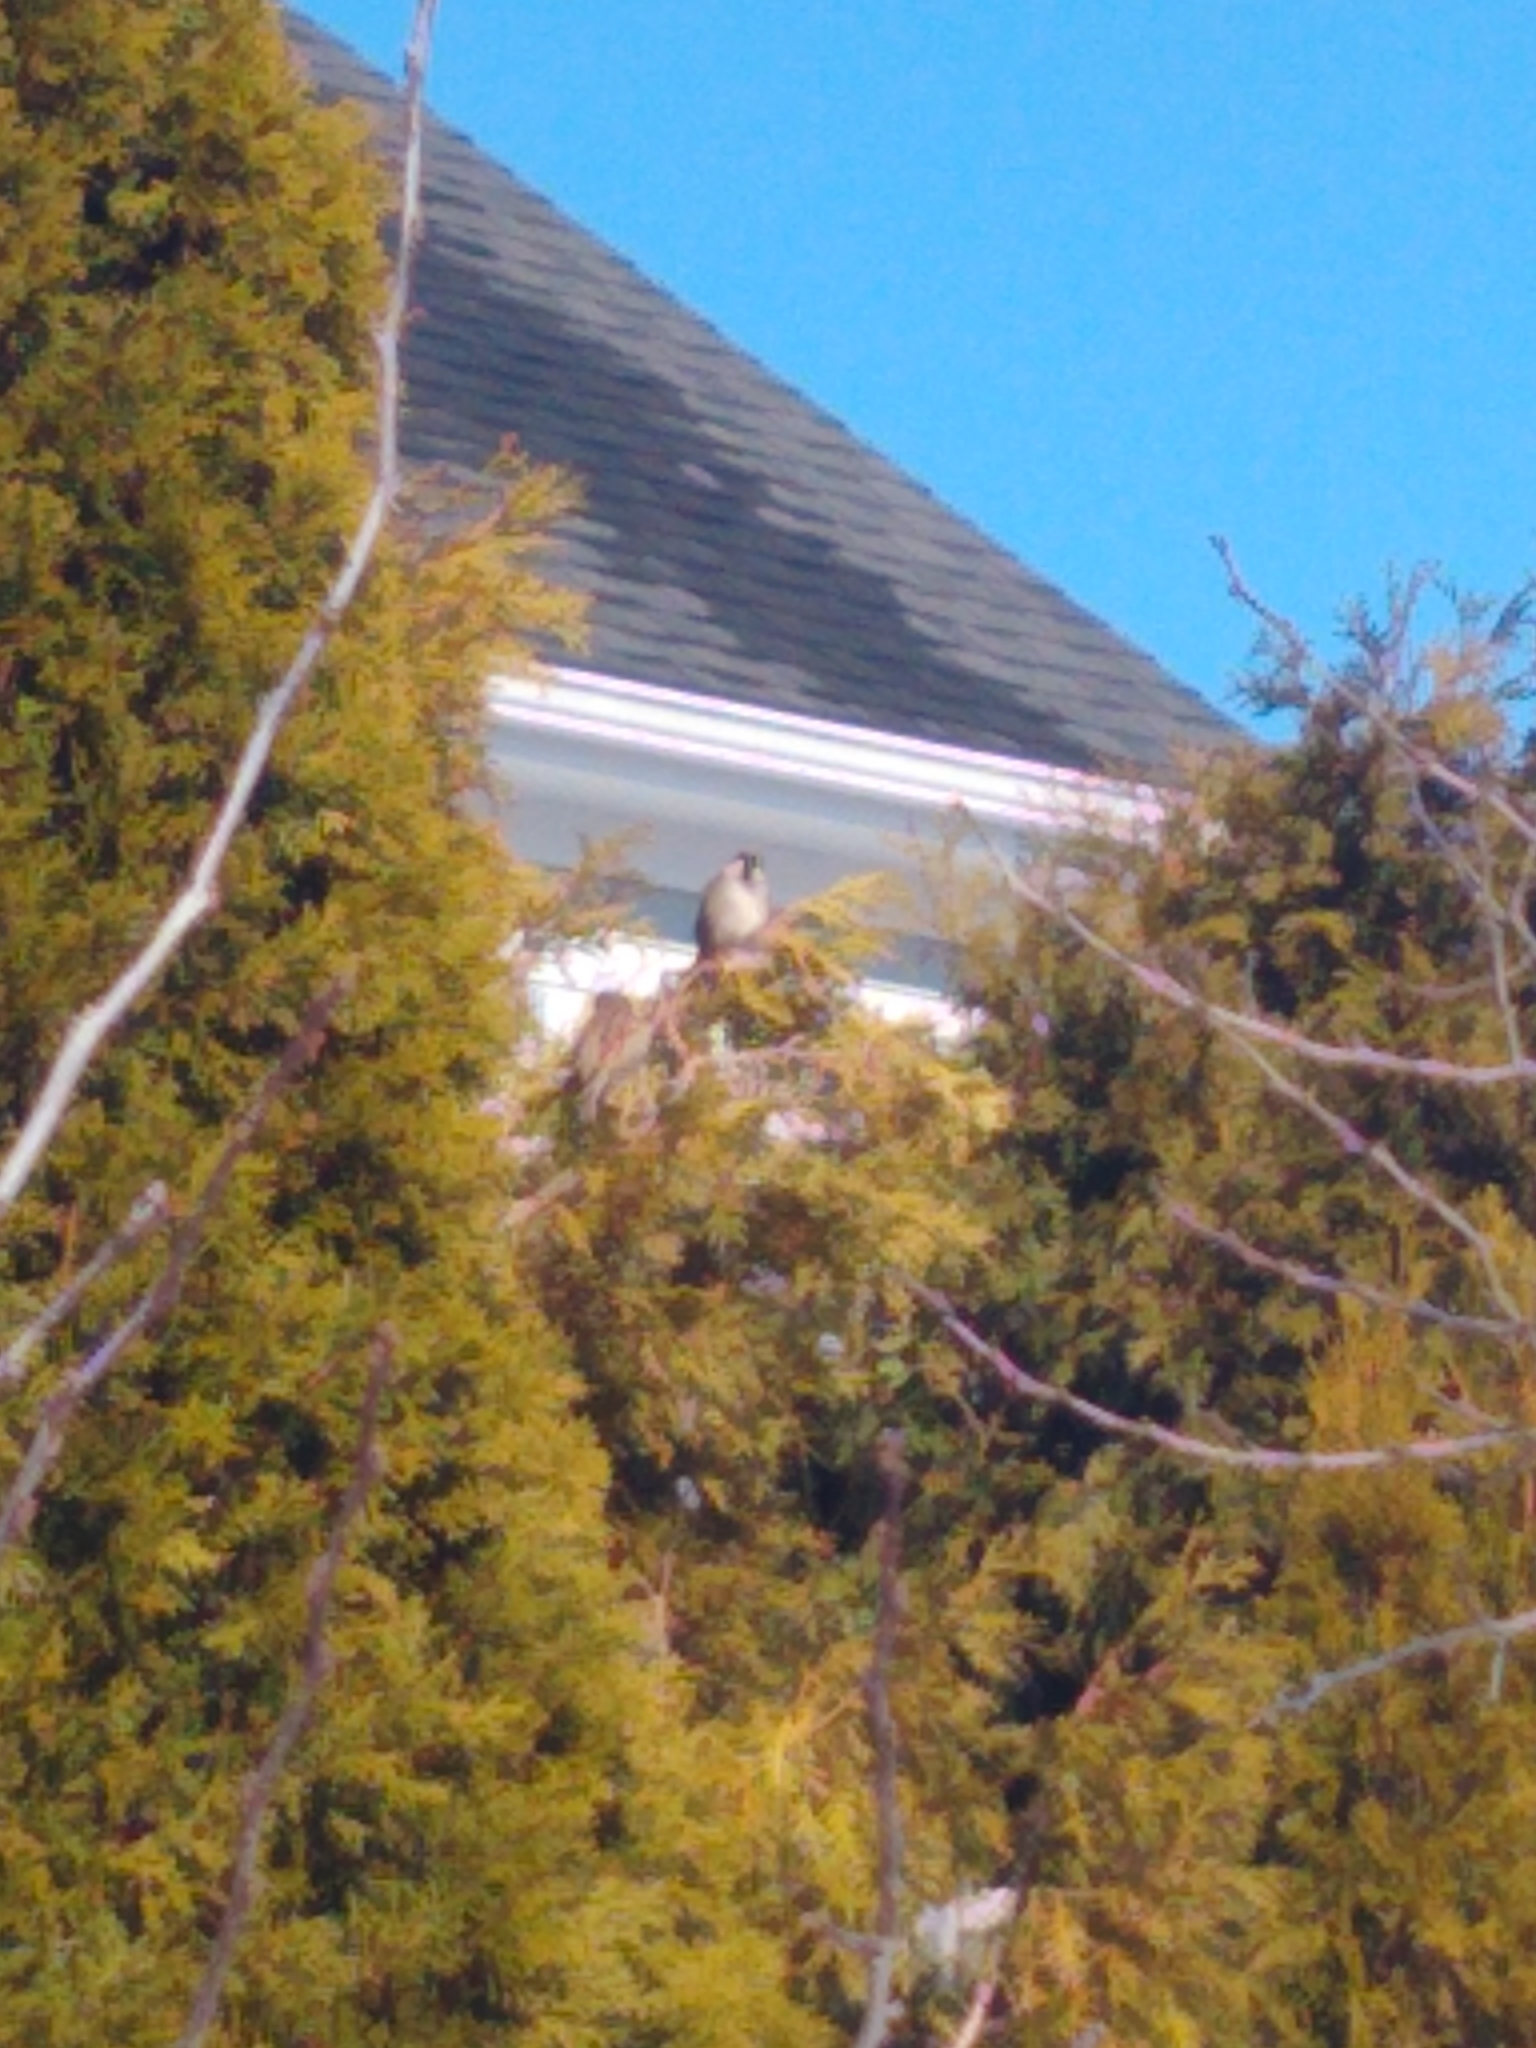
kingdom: Animalia
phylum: Chordata
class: Aves
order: Passeriformes
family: Passeridae
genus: Passer
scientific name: Passer domesticus
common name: House sparrow
